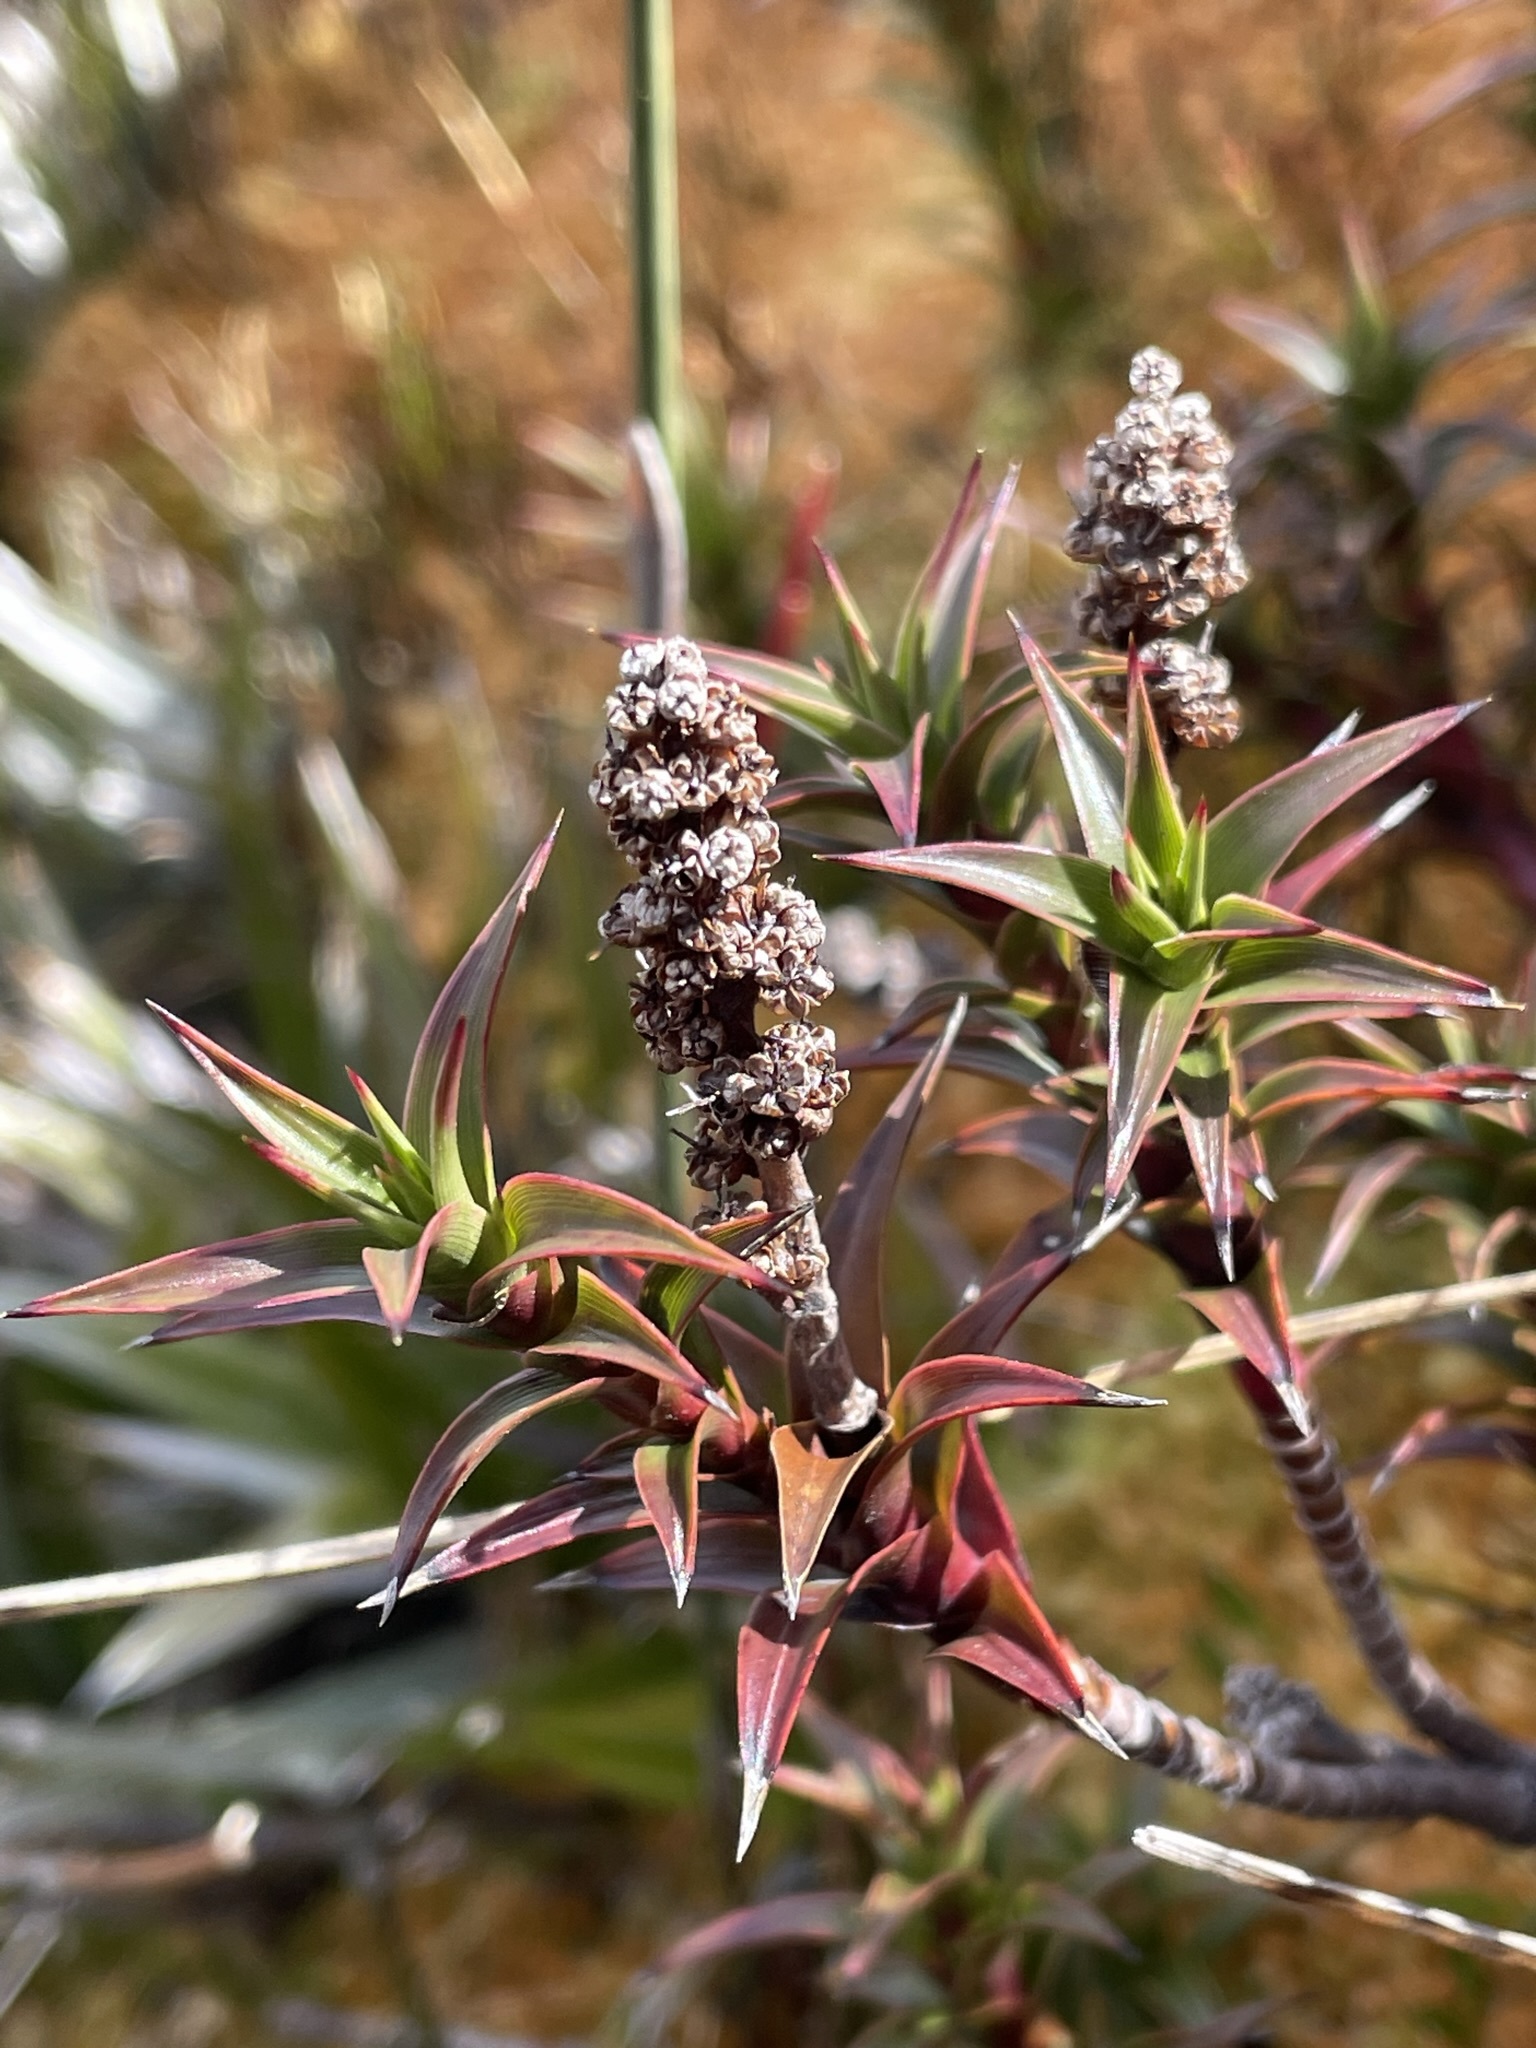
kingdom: Plantae
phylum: Tracheophyta
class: Magnoliopsida
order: Ericales
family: Ericaceae
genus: Dracophyllum
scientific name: Dracophyllum gunnii
